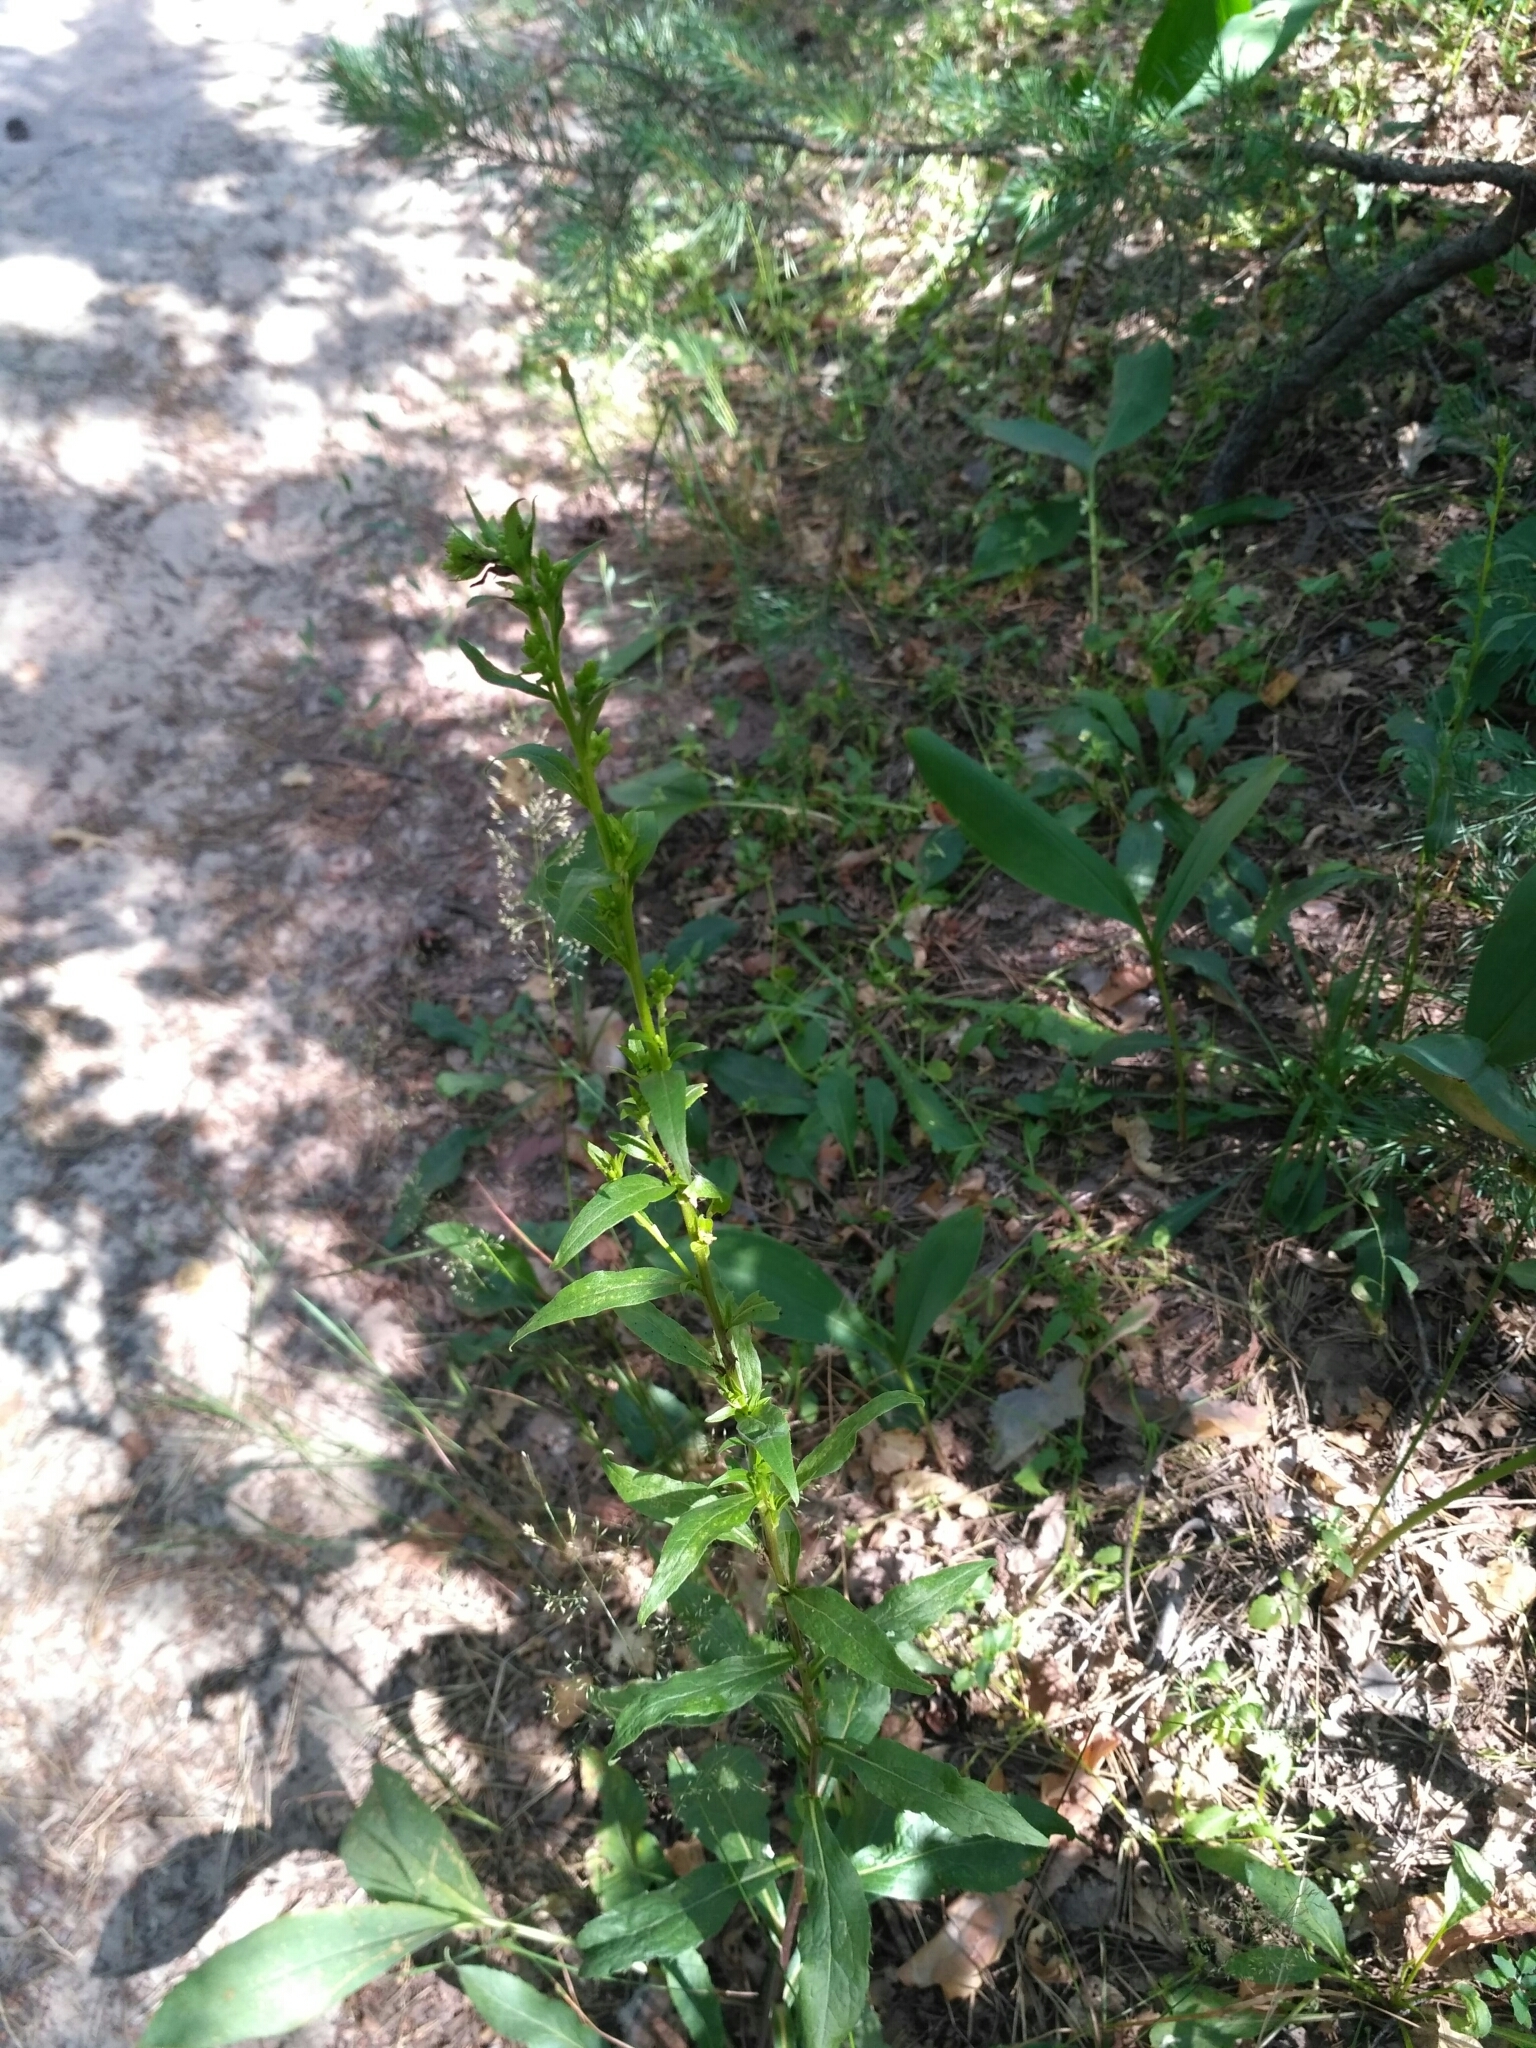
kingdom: Plantae
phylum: Tracheophyta
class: Magnoliopsida
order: Asterales
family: Asteraceae
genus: Solidago
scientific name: Solidago virgaurea
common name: Goldenrod
